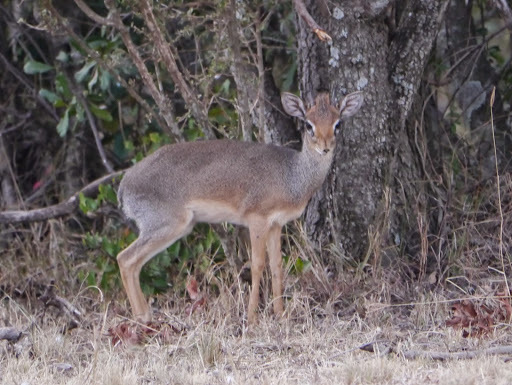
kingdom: Animalia
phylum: Chordata
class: Mammalia
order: Artiodactyla
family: Bovidae
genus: Madoqua
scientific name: Madoqua
